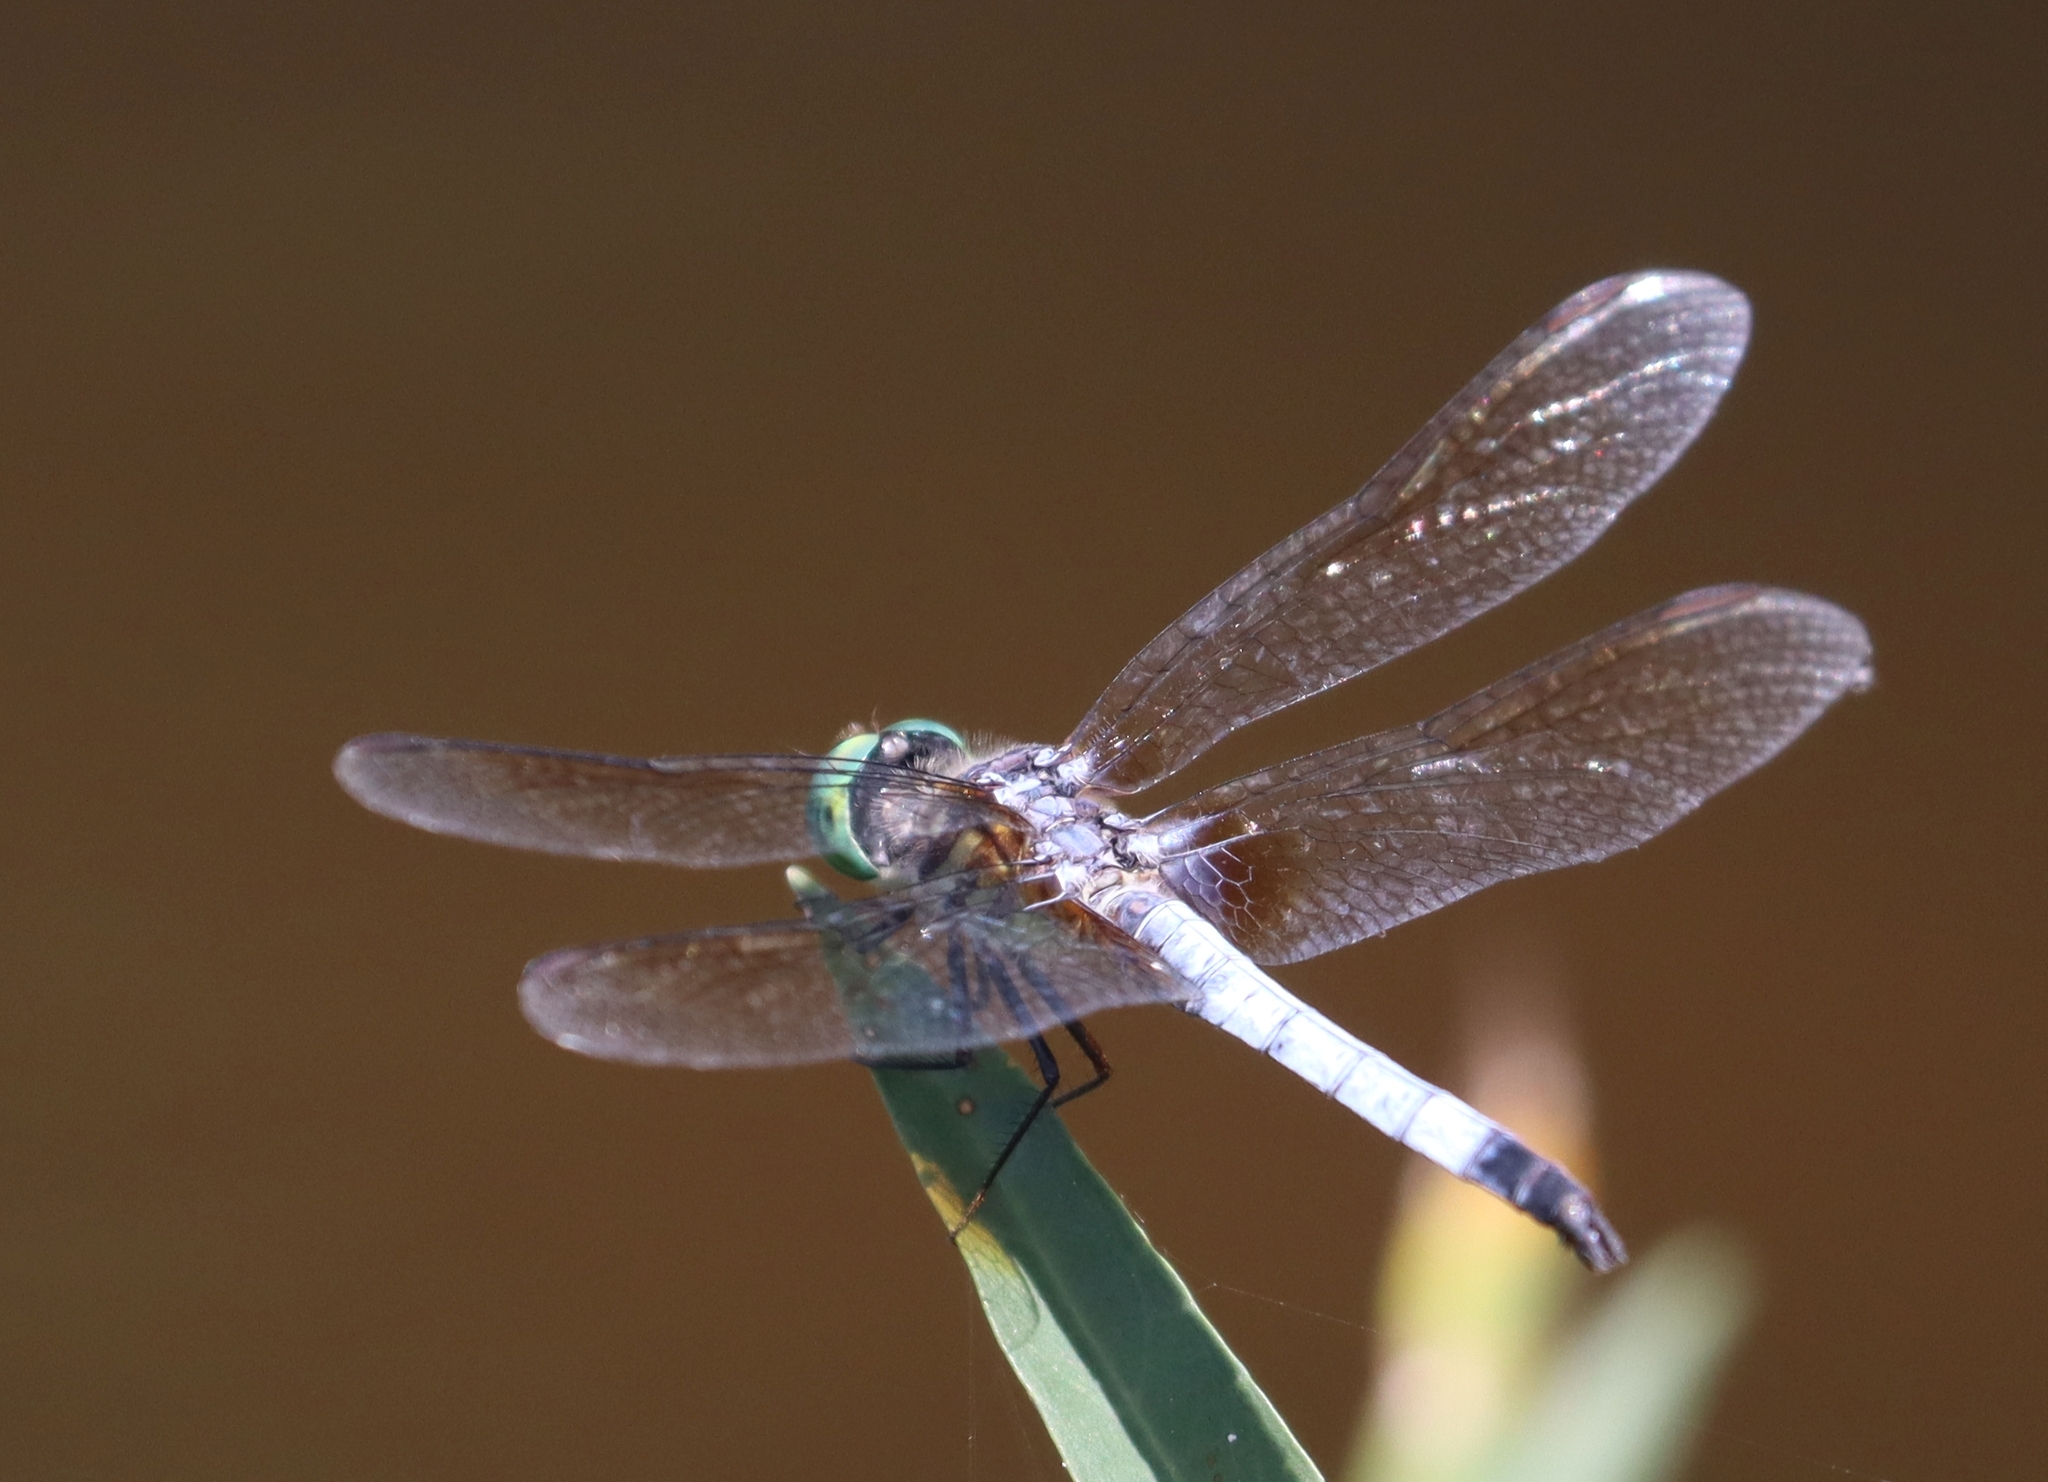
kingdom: Animalia
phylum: Arthropoda
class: Insecta
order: Odonata
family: Libellulidae
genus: Pachydiplax
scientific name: Pachydiplax longipennis
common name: Blue dasher
